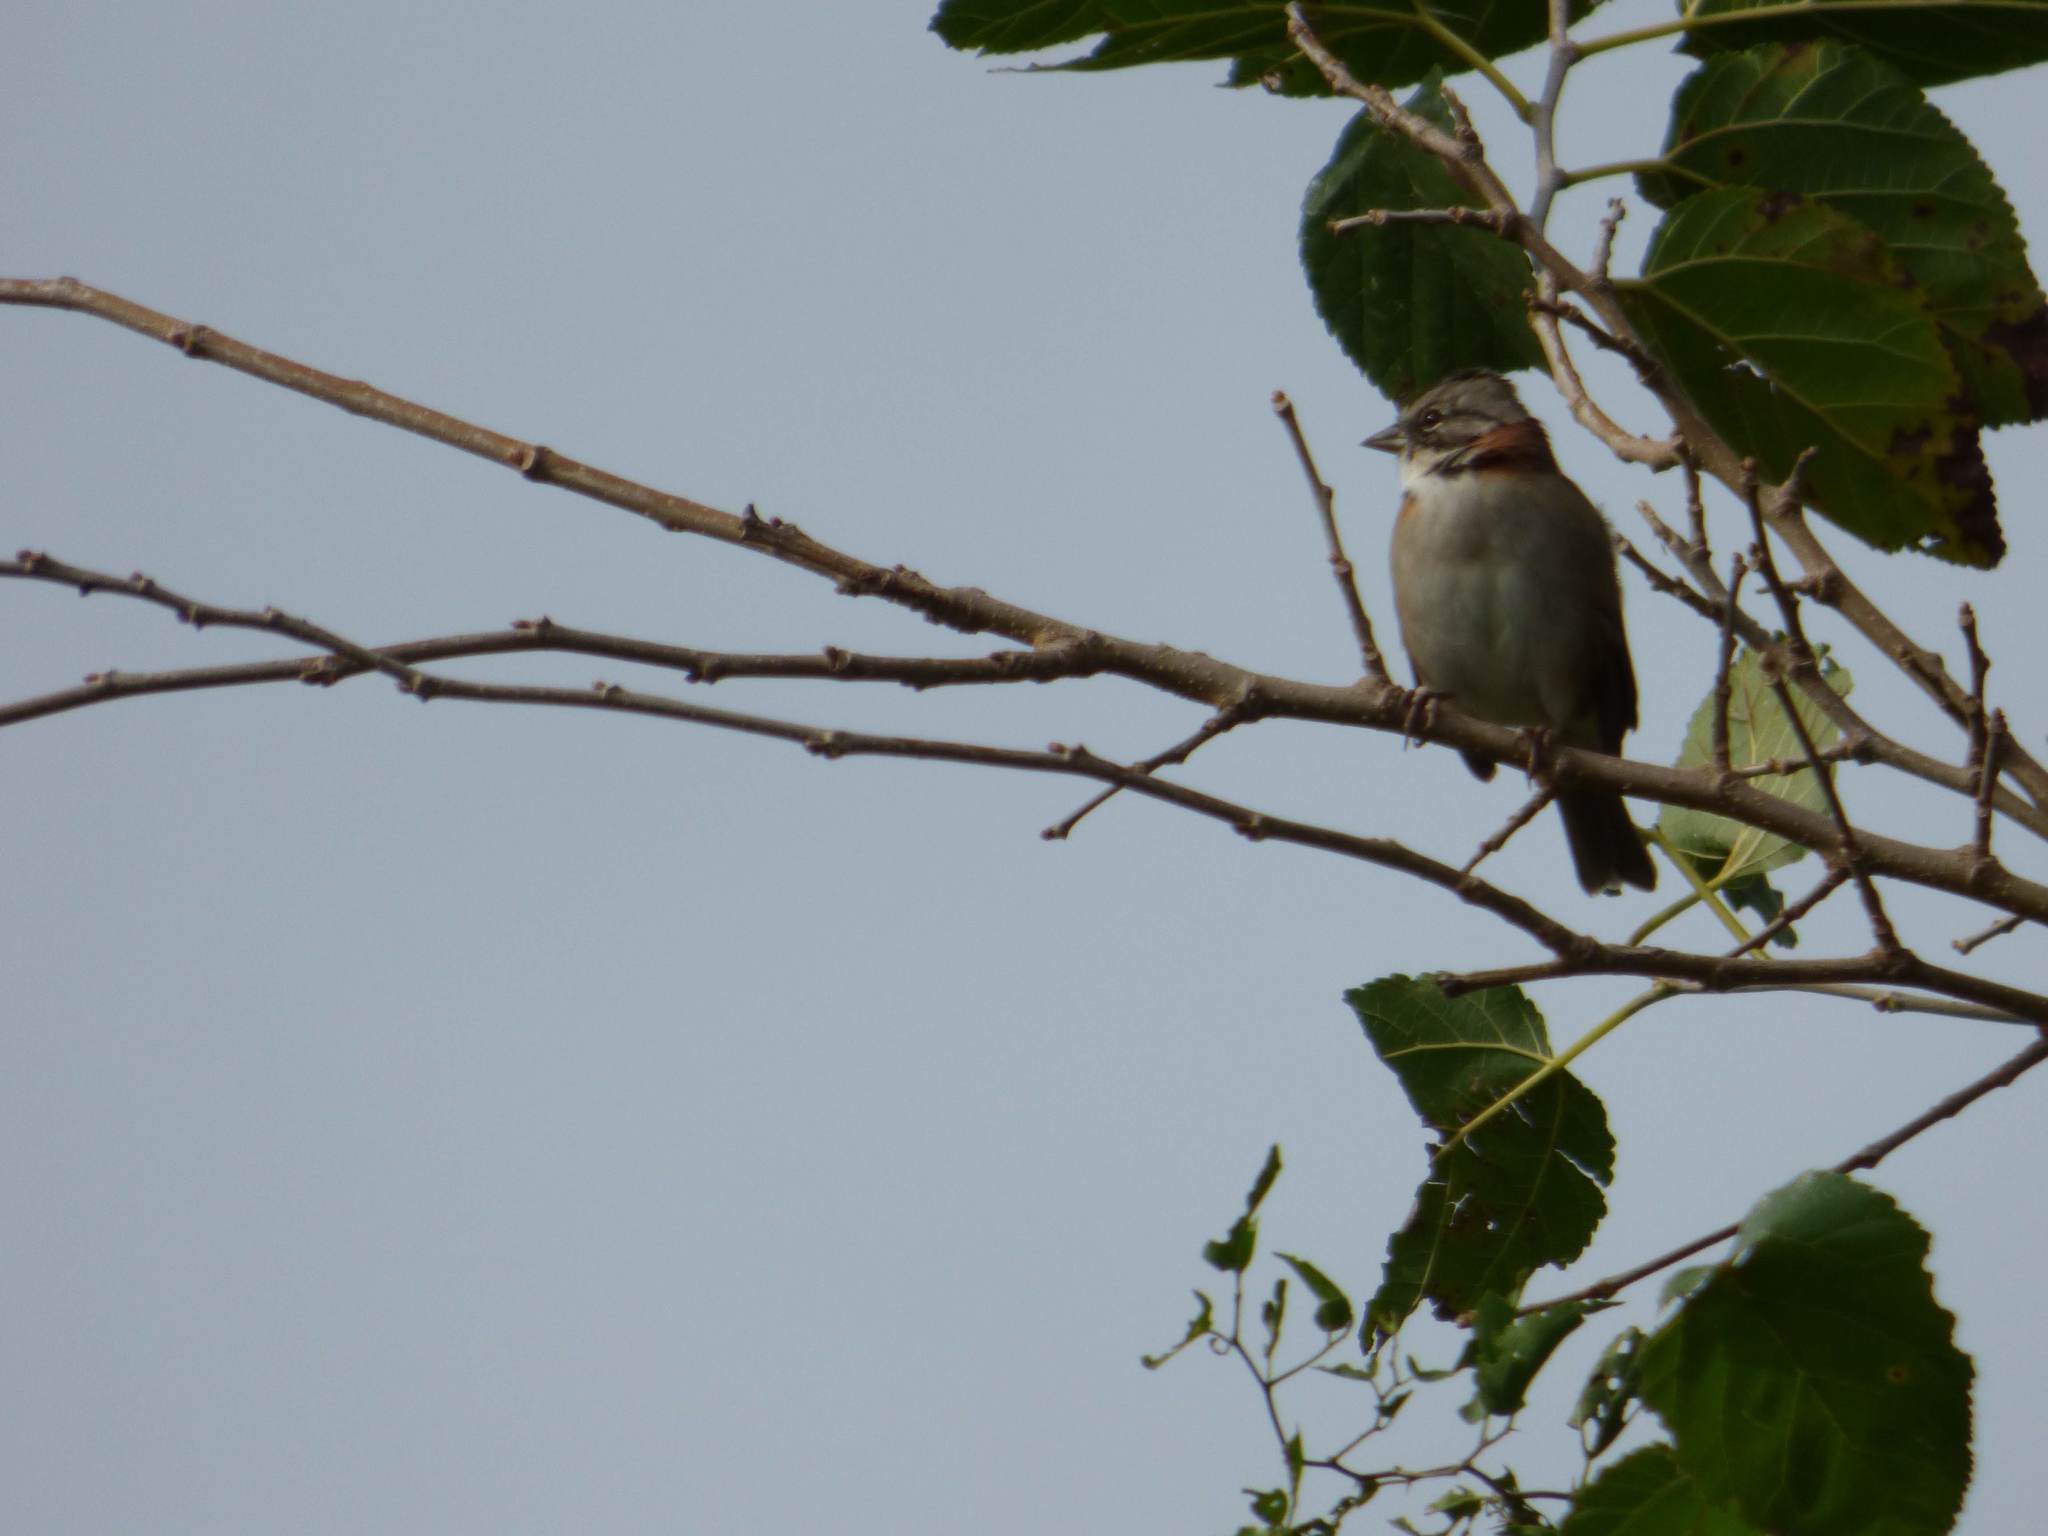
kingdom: Animalia
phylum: Chordata
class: Aves
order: Passeriformes
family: Passerellidae
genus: Zonotrichia
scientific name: Zonotrichia capensis
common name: Rufous-collared sparrow
